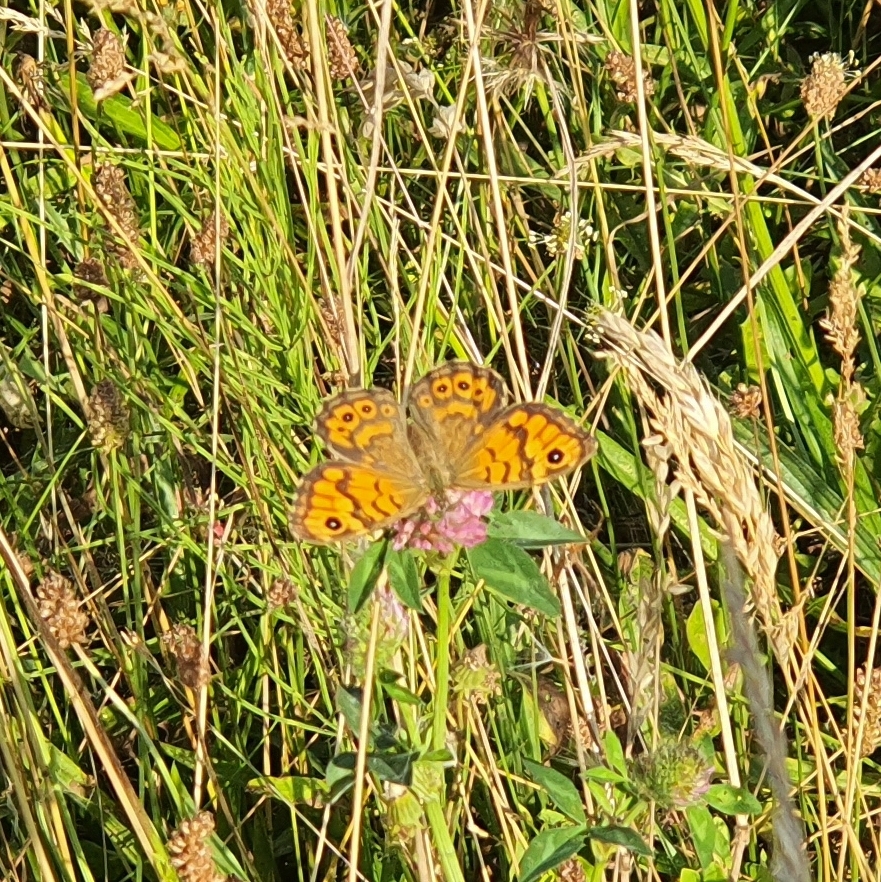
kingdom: Animalia
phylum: Arthropoda
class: Insecta
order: Lepidoptera
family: Nymphalidae
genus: Pararge
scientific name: Pararge Lasiommata megera
